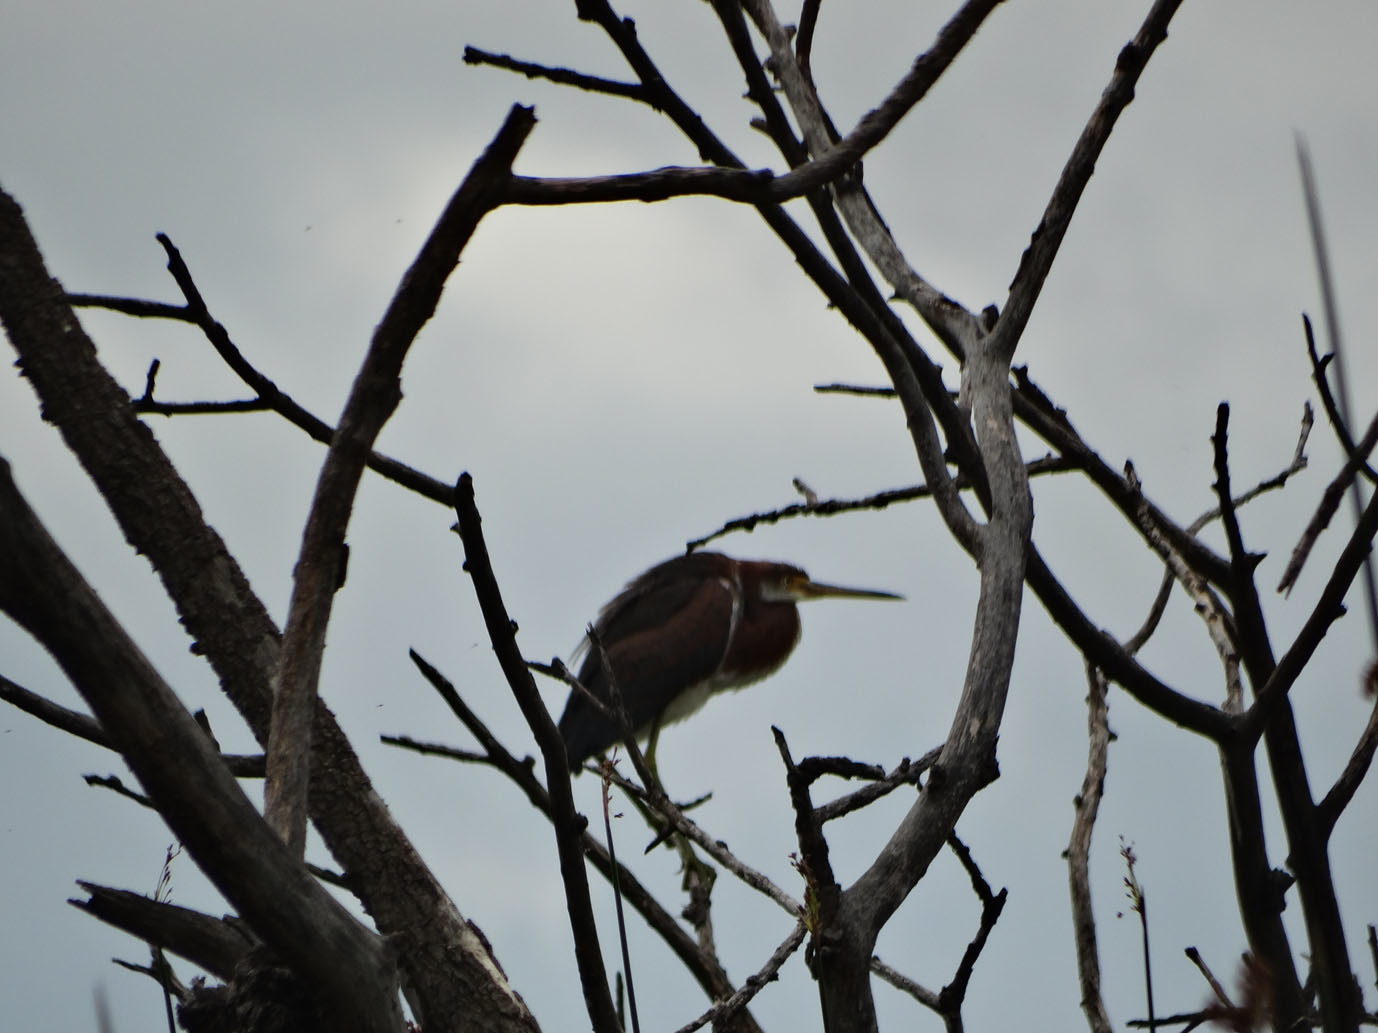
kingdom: Animalia
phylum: Chordata
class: Aves
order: Pelecaniformes
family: Ardeidae
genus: Egretta
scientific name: Egretta tricolor
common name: Tricolored heron
